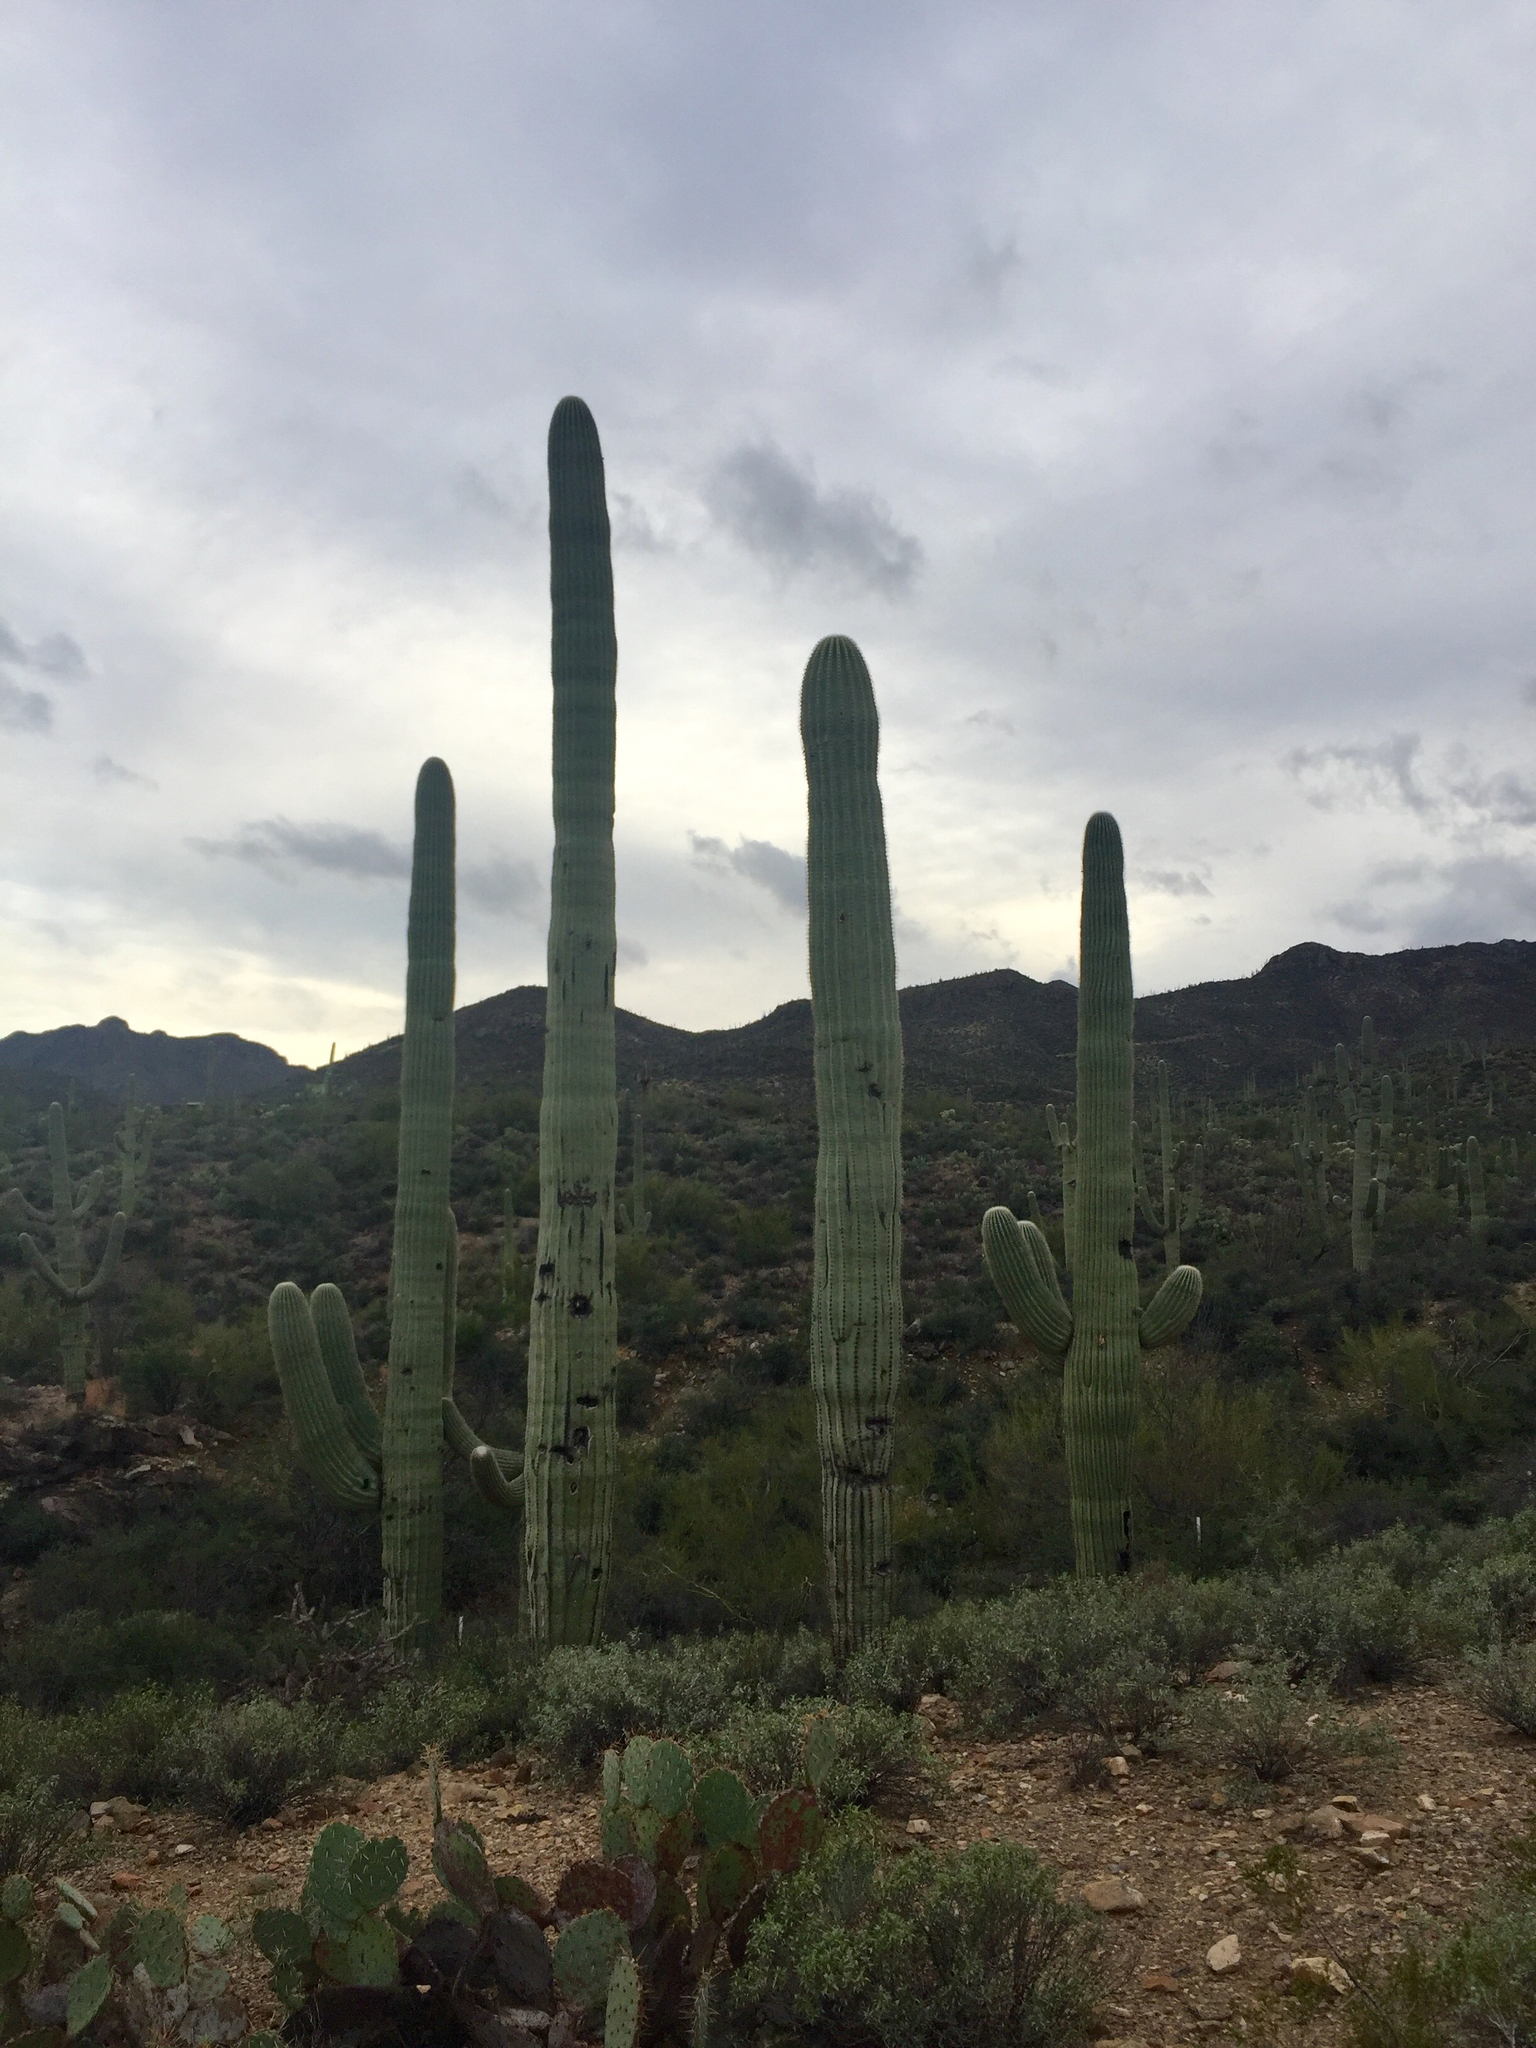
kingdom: Plantae
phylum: Tracheophyta
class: Magnoliopsida
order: Caryophyllales
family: Cactaceae
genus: Carnegiea
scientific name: Carnegiea gigantea
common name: Saguaro
